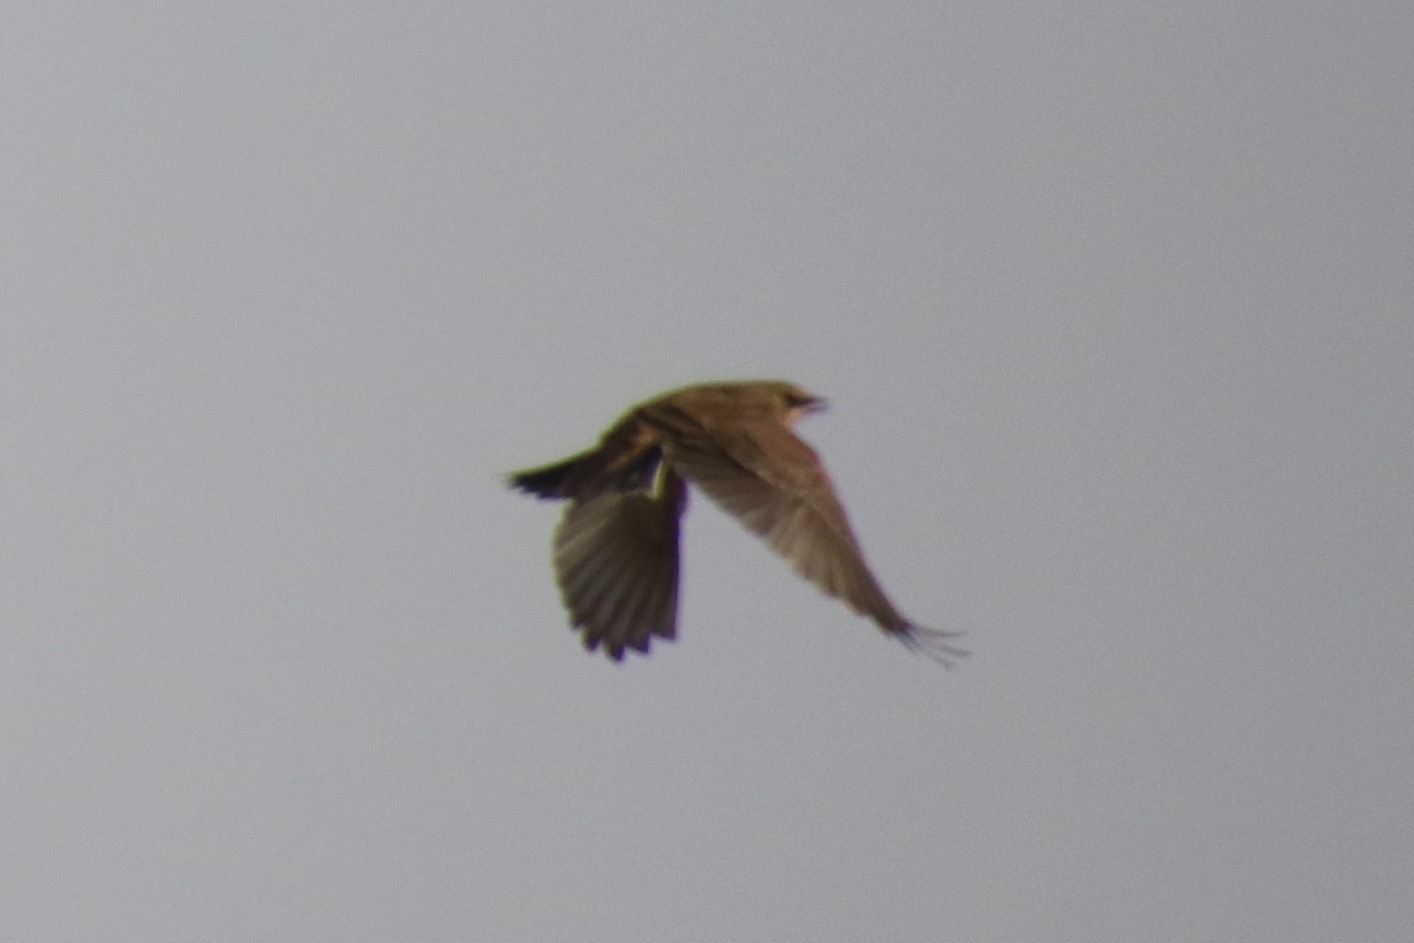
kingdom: Animalia
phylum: Chordata
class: Aves
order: Passeriformes
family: Alaudidae
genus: Eremophila
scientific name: Eremophila alpestris
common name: Horned lark
